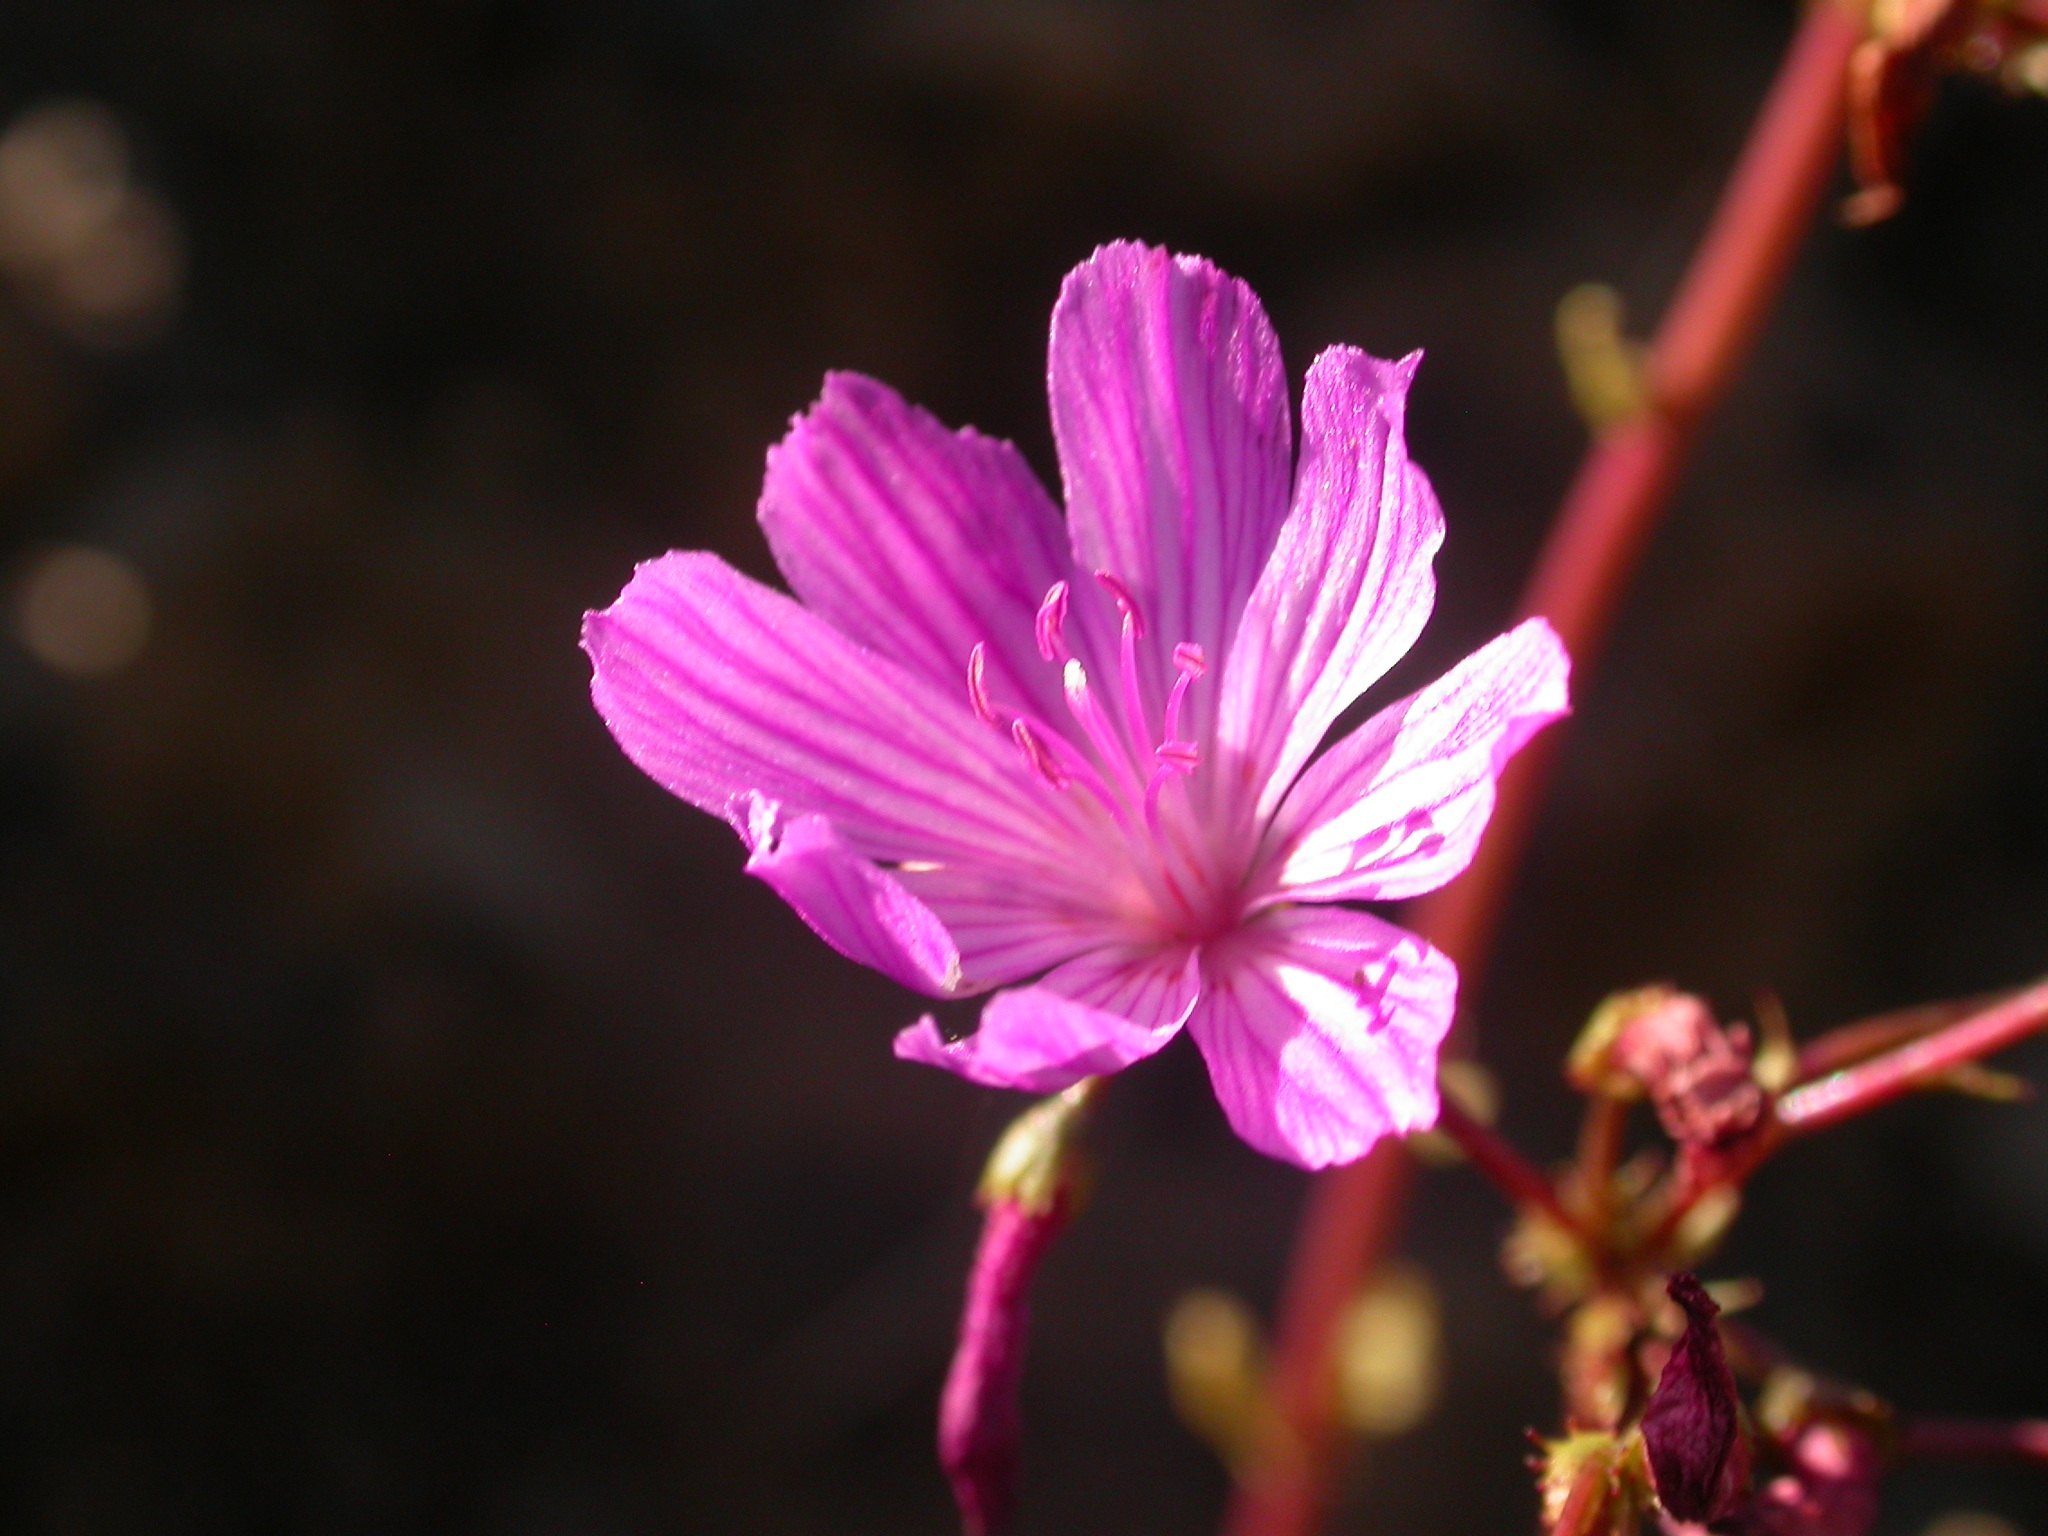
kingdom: Plantae
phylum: Tracheophyta
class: Magnoliopsida
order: Caryophyllales
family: Montiaceae
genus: Lewisia
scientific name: Lewisia columbiana
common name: Columbia lewisia
